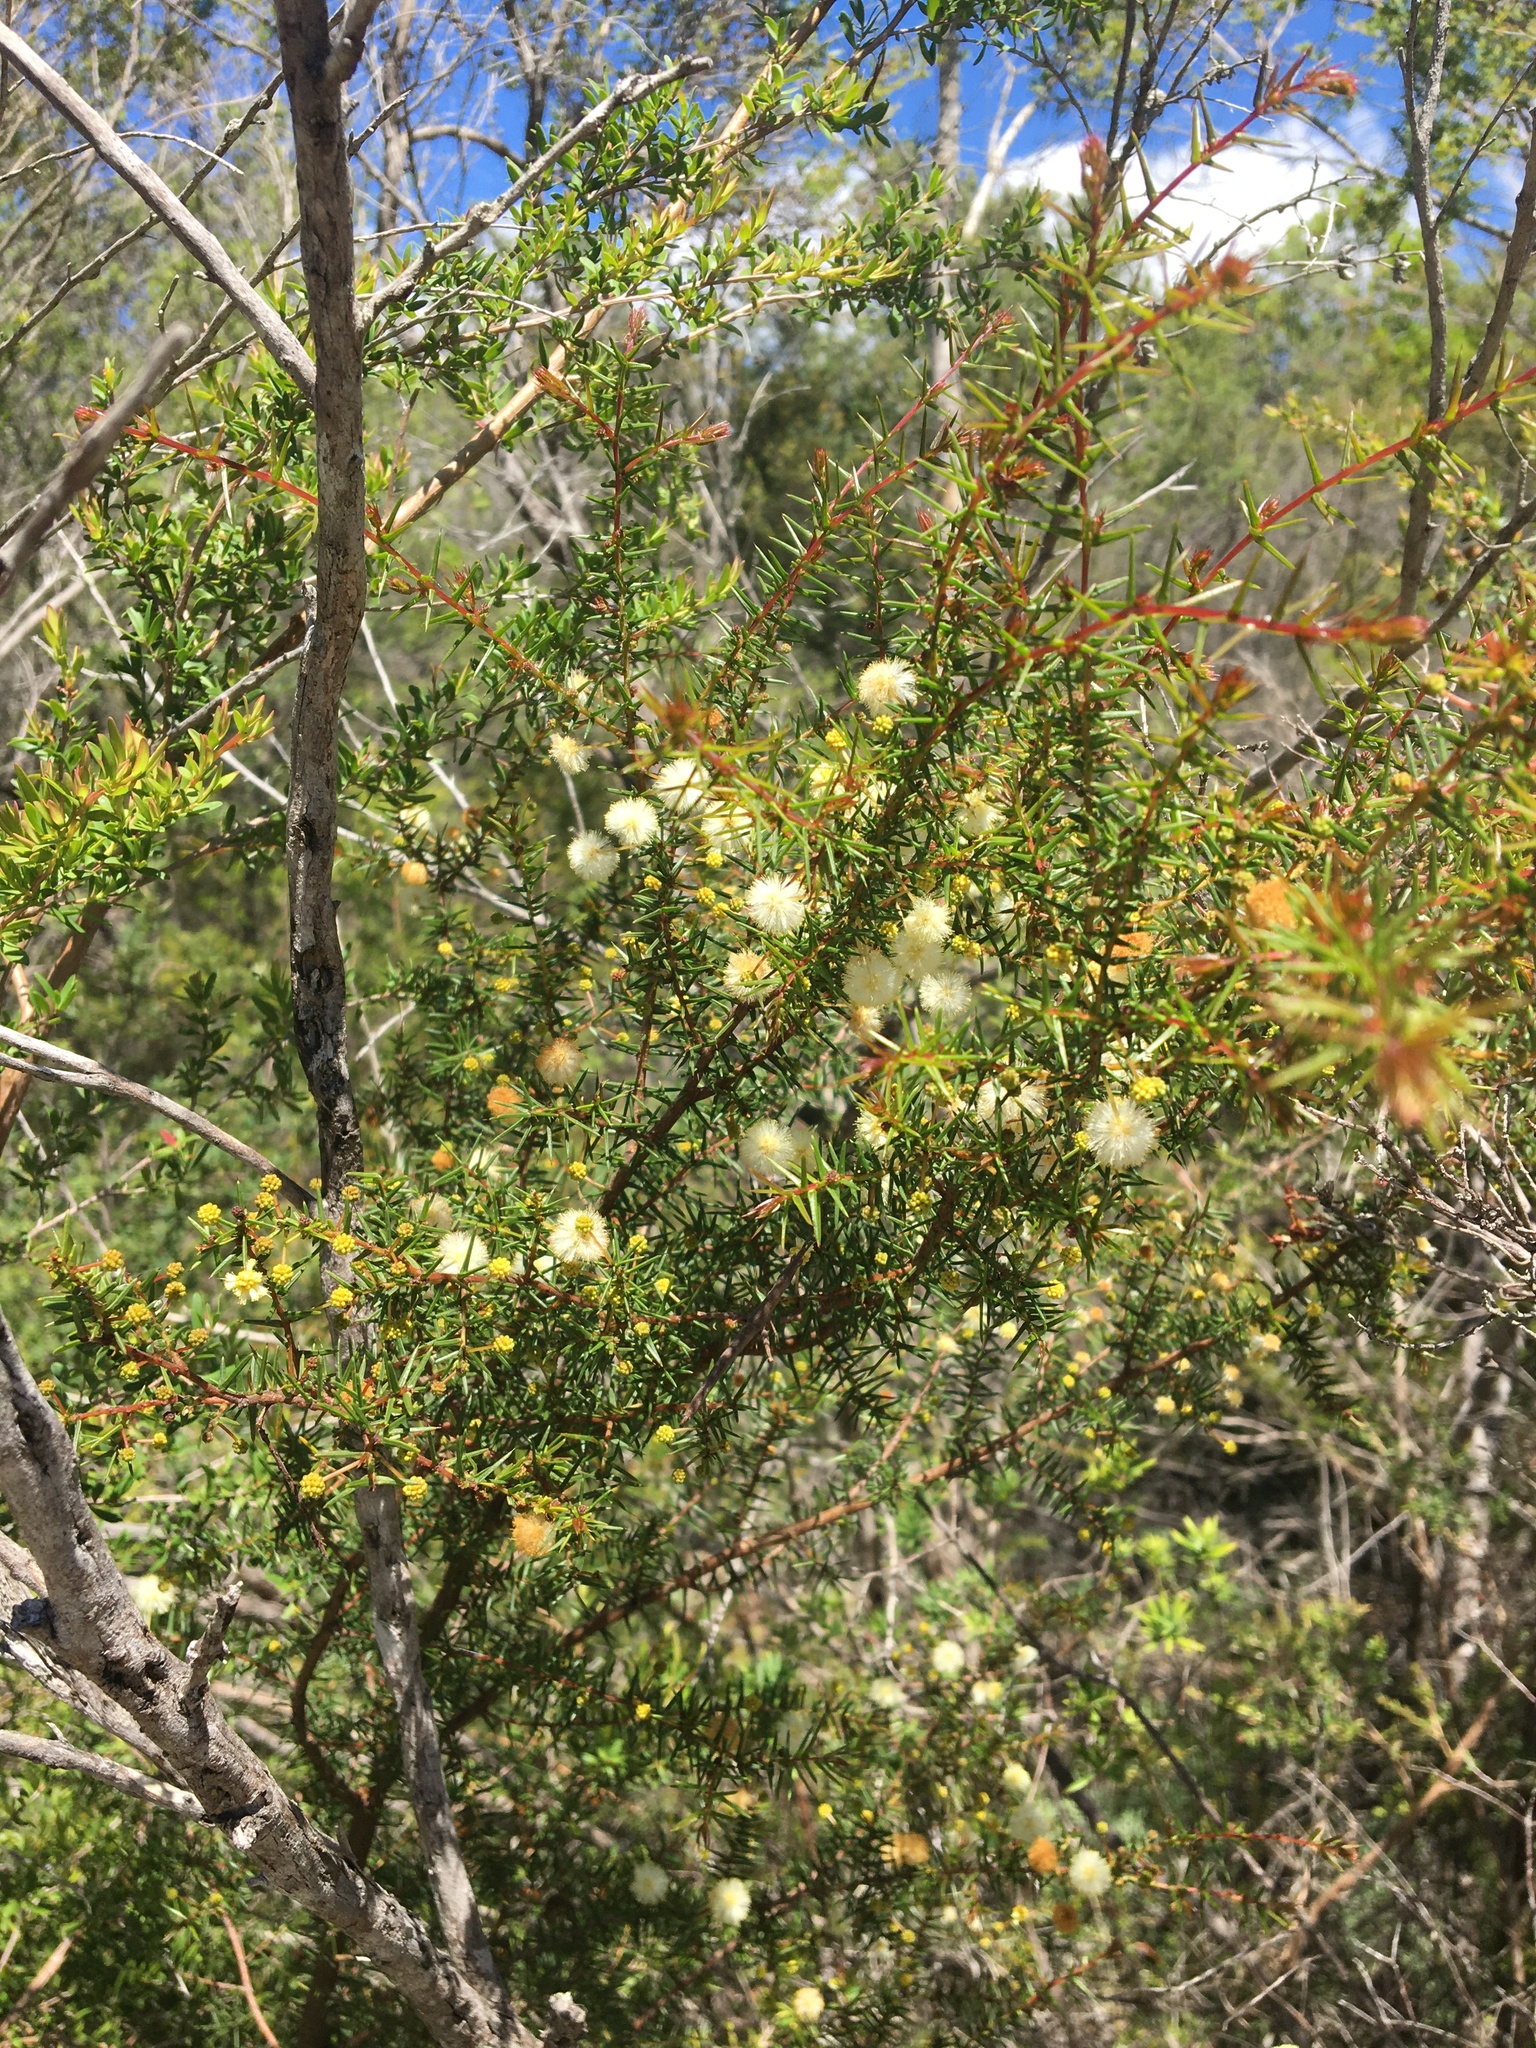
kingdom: Plantae
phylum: Tracheophyta
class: Magnoliopsida
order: Fabales
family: Fabaceae
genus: Acacia
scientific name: Acacia ulicifolia
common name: Juniper wattle
